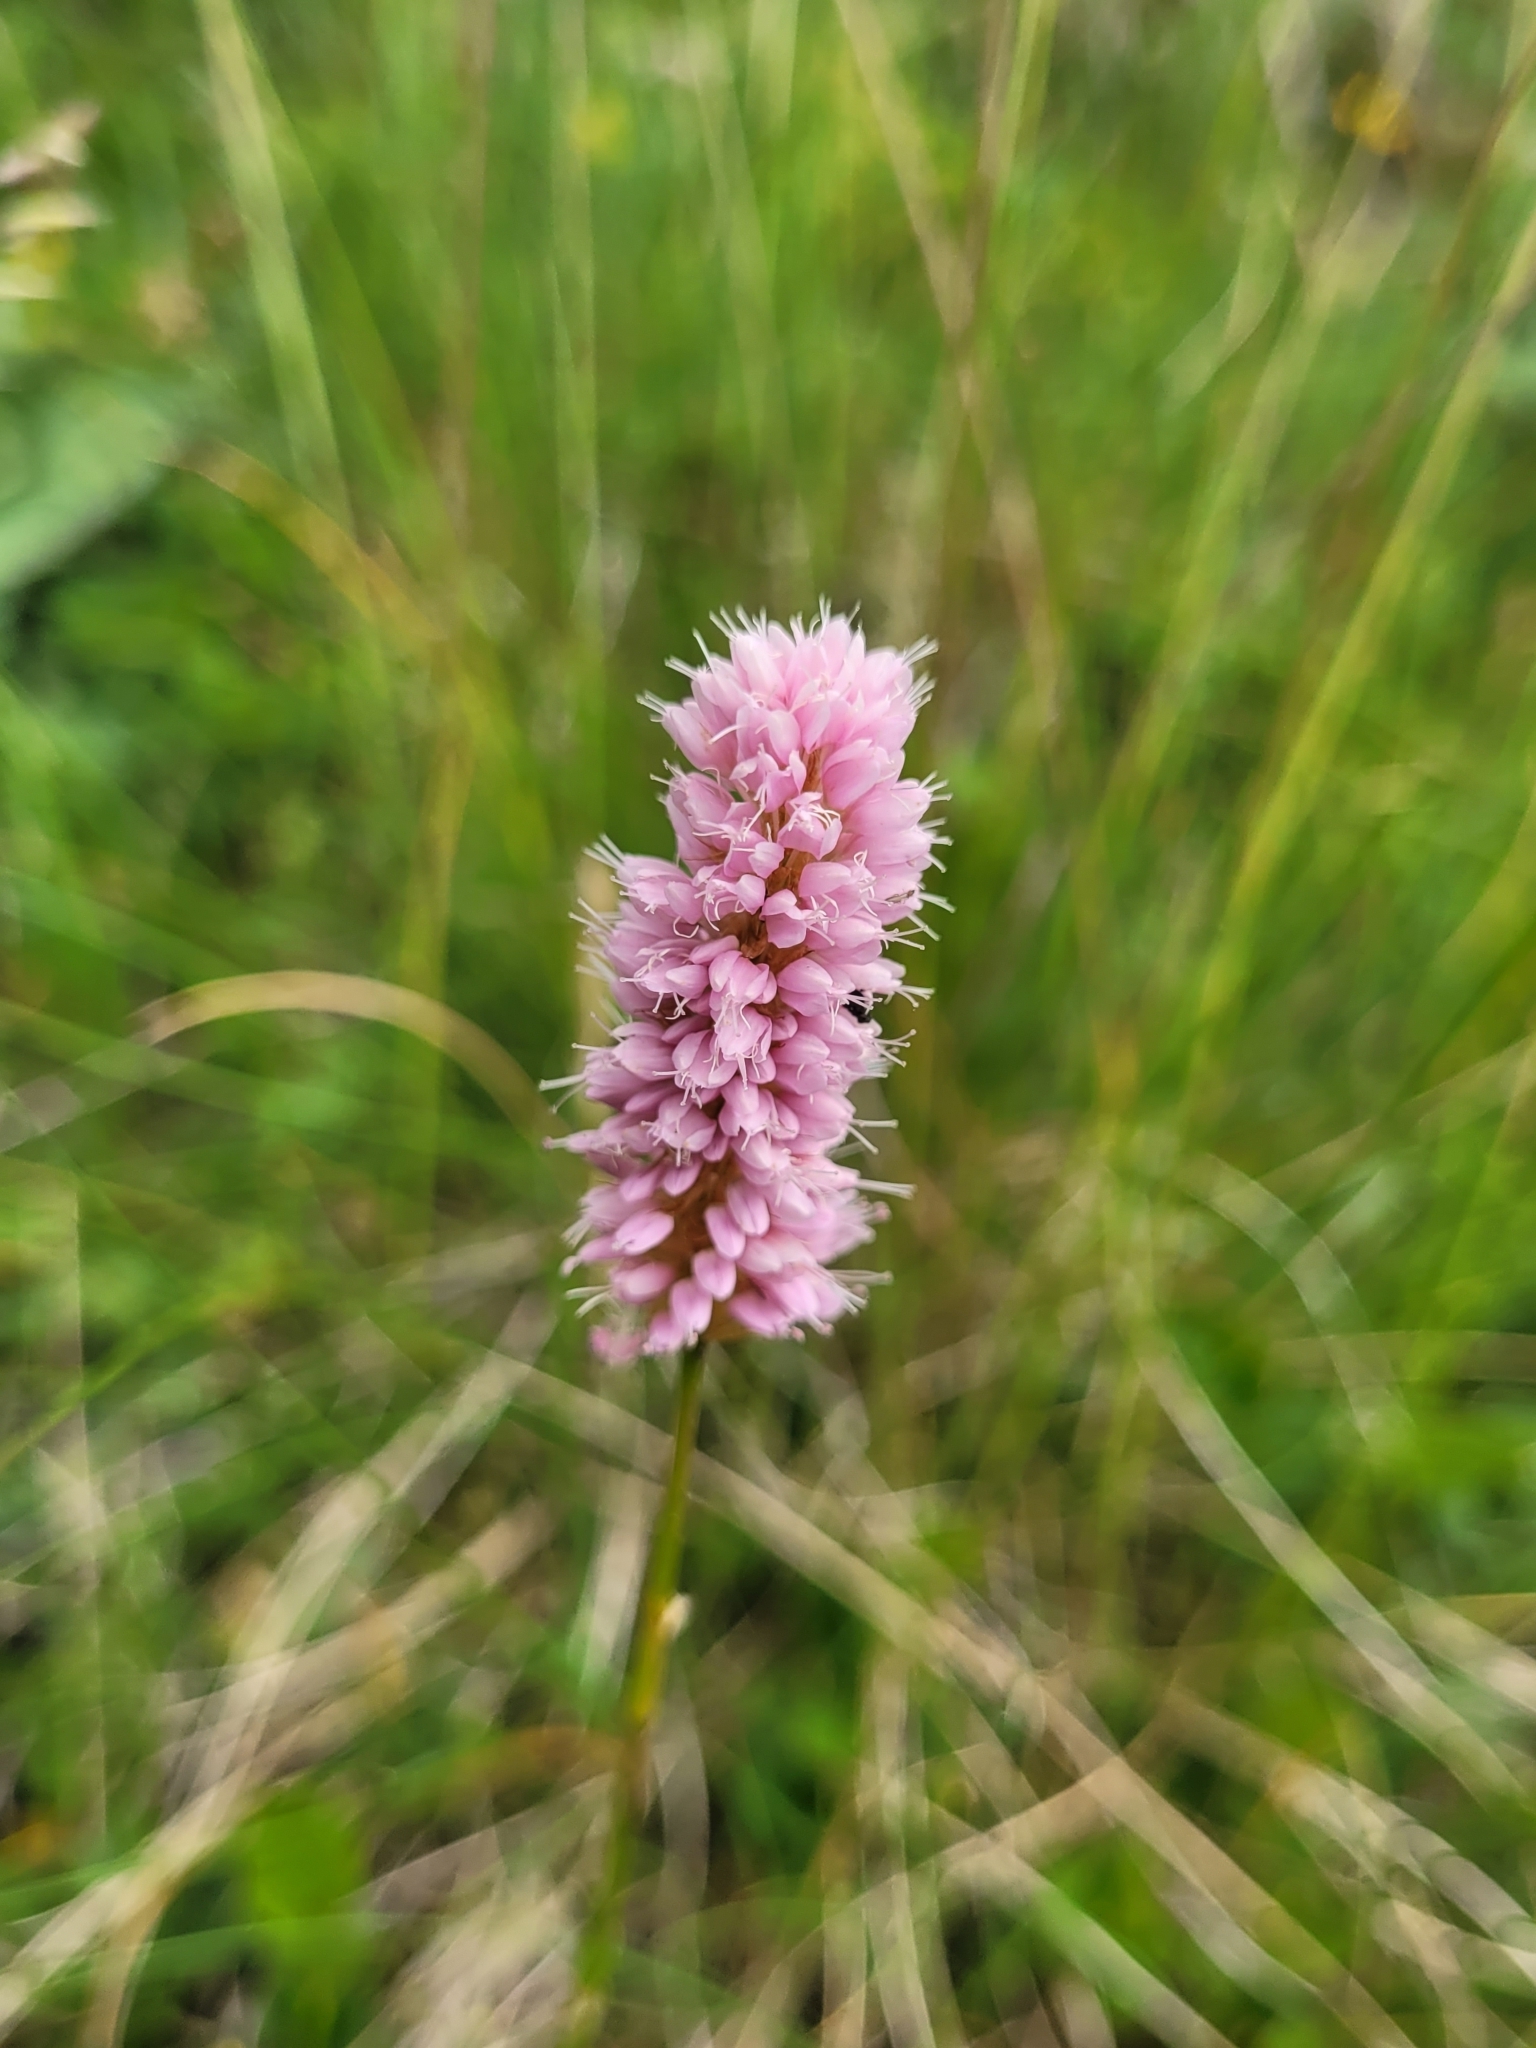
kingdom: Plantae
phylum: Tracheophyta
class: Magnoliopsida
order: Caryophyllales
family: Polygonaceae
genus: Bistorta
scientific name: Bistorta officinalis
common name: Common bistort
